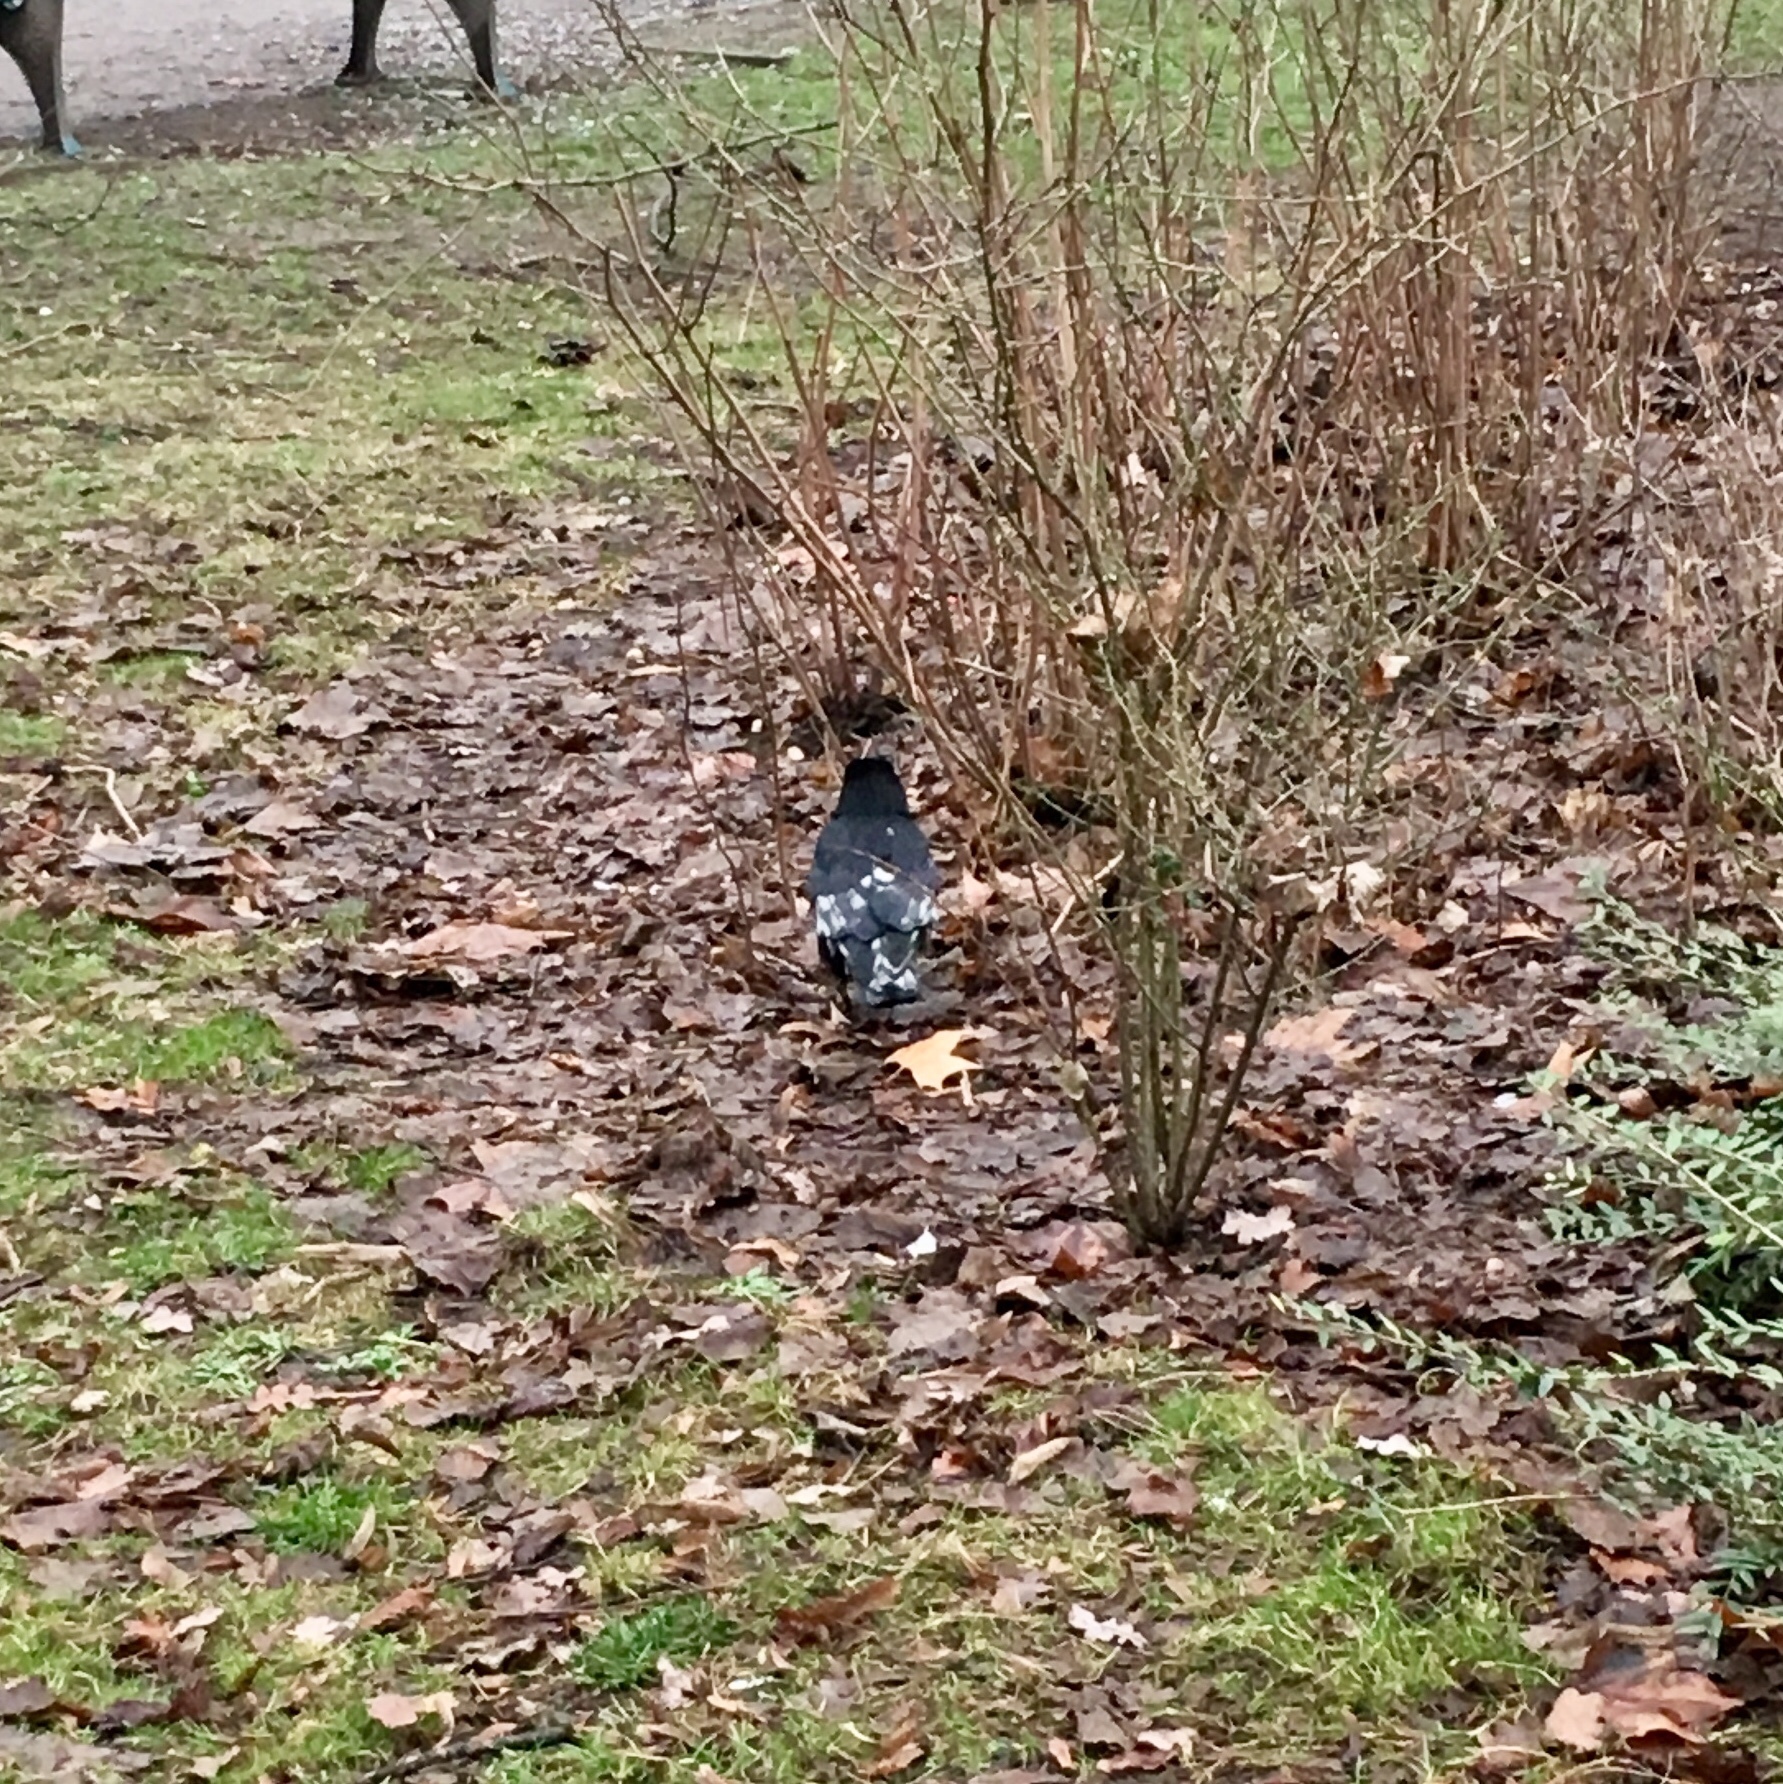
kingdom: Animalia
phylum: Chordata
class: Aves
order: Passeriformes
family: Corvidae
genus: Corvus
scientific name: Corvus corone
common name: Carrion crow
